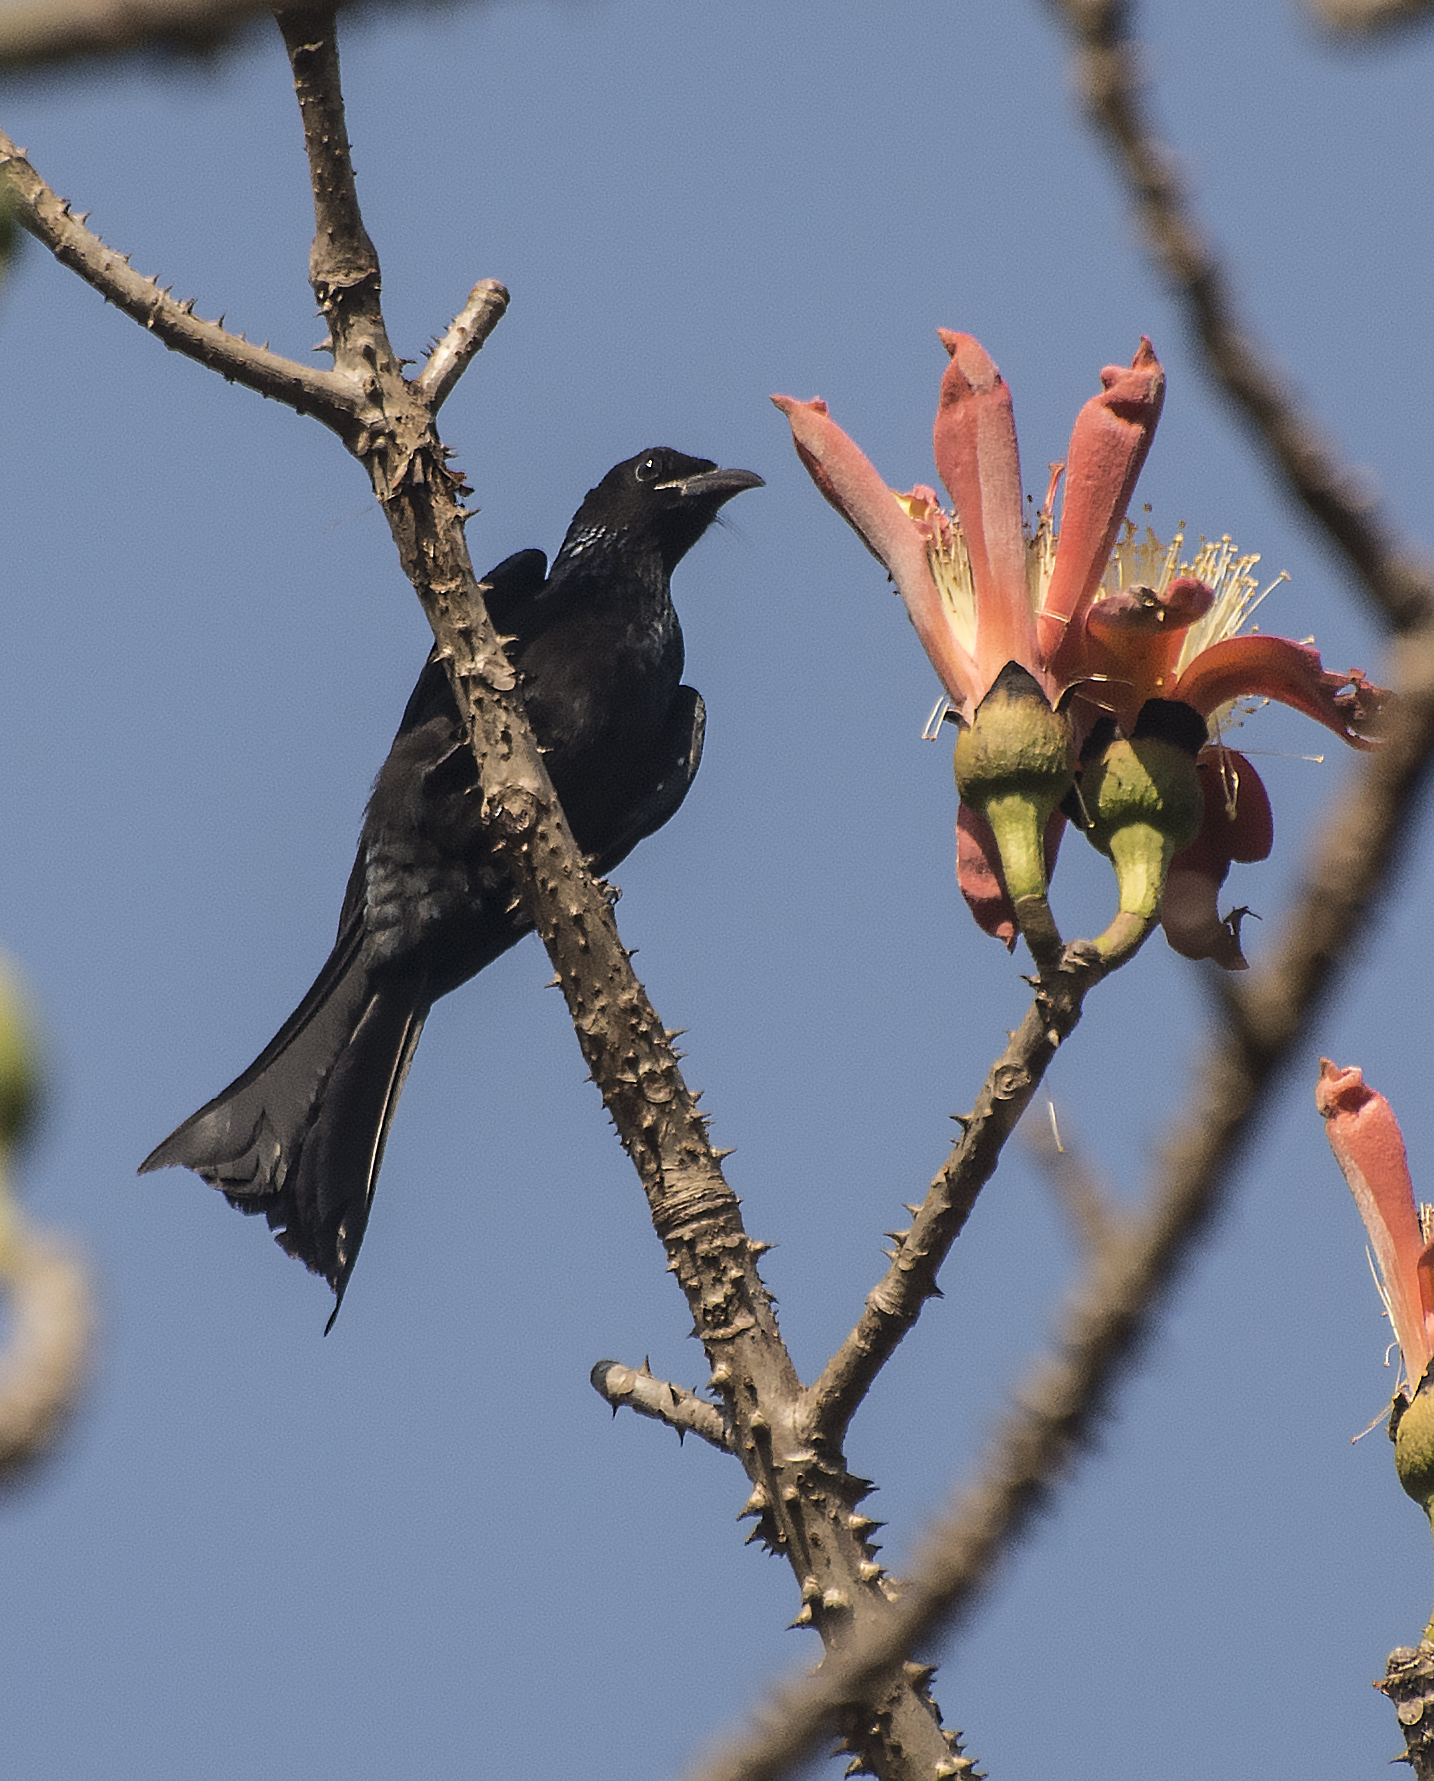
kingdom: Animalia
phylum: Chordata
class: Aves
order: Passeriformes
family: Dicruridae
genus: Dicrurus
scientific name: Dicrurus hottentottus
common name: Hair-crested drongo
